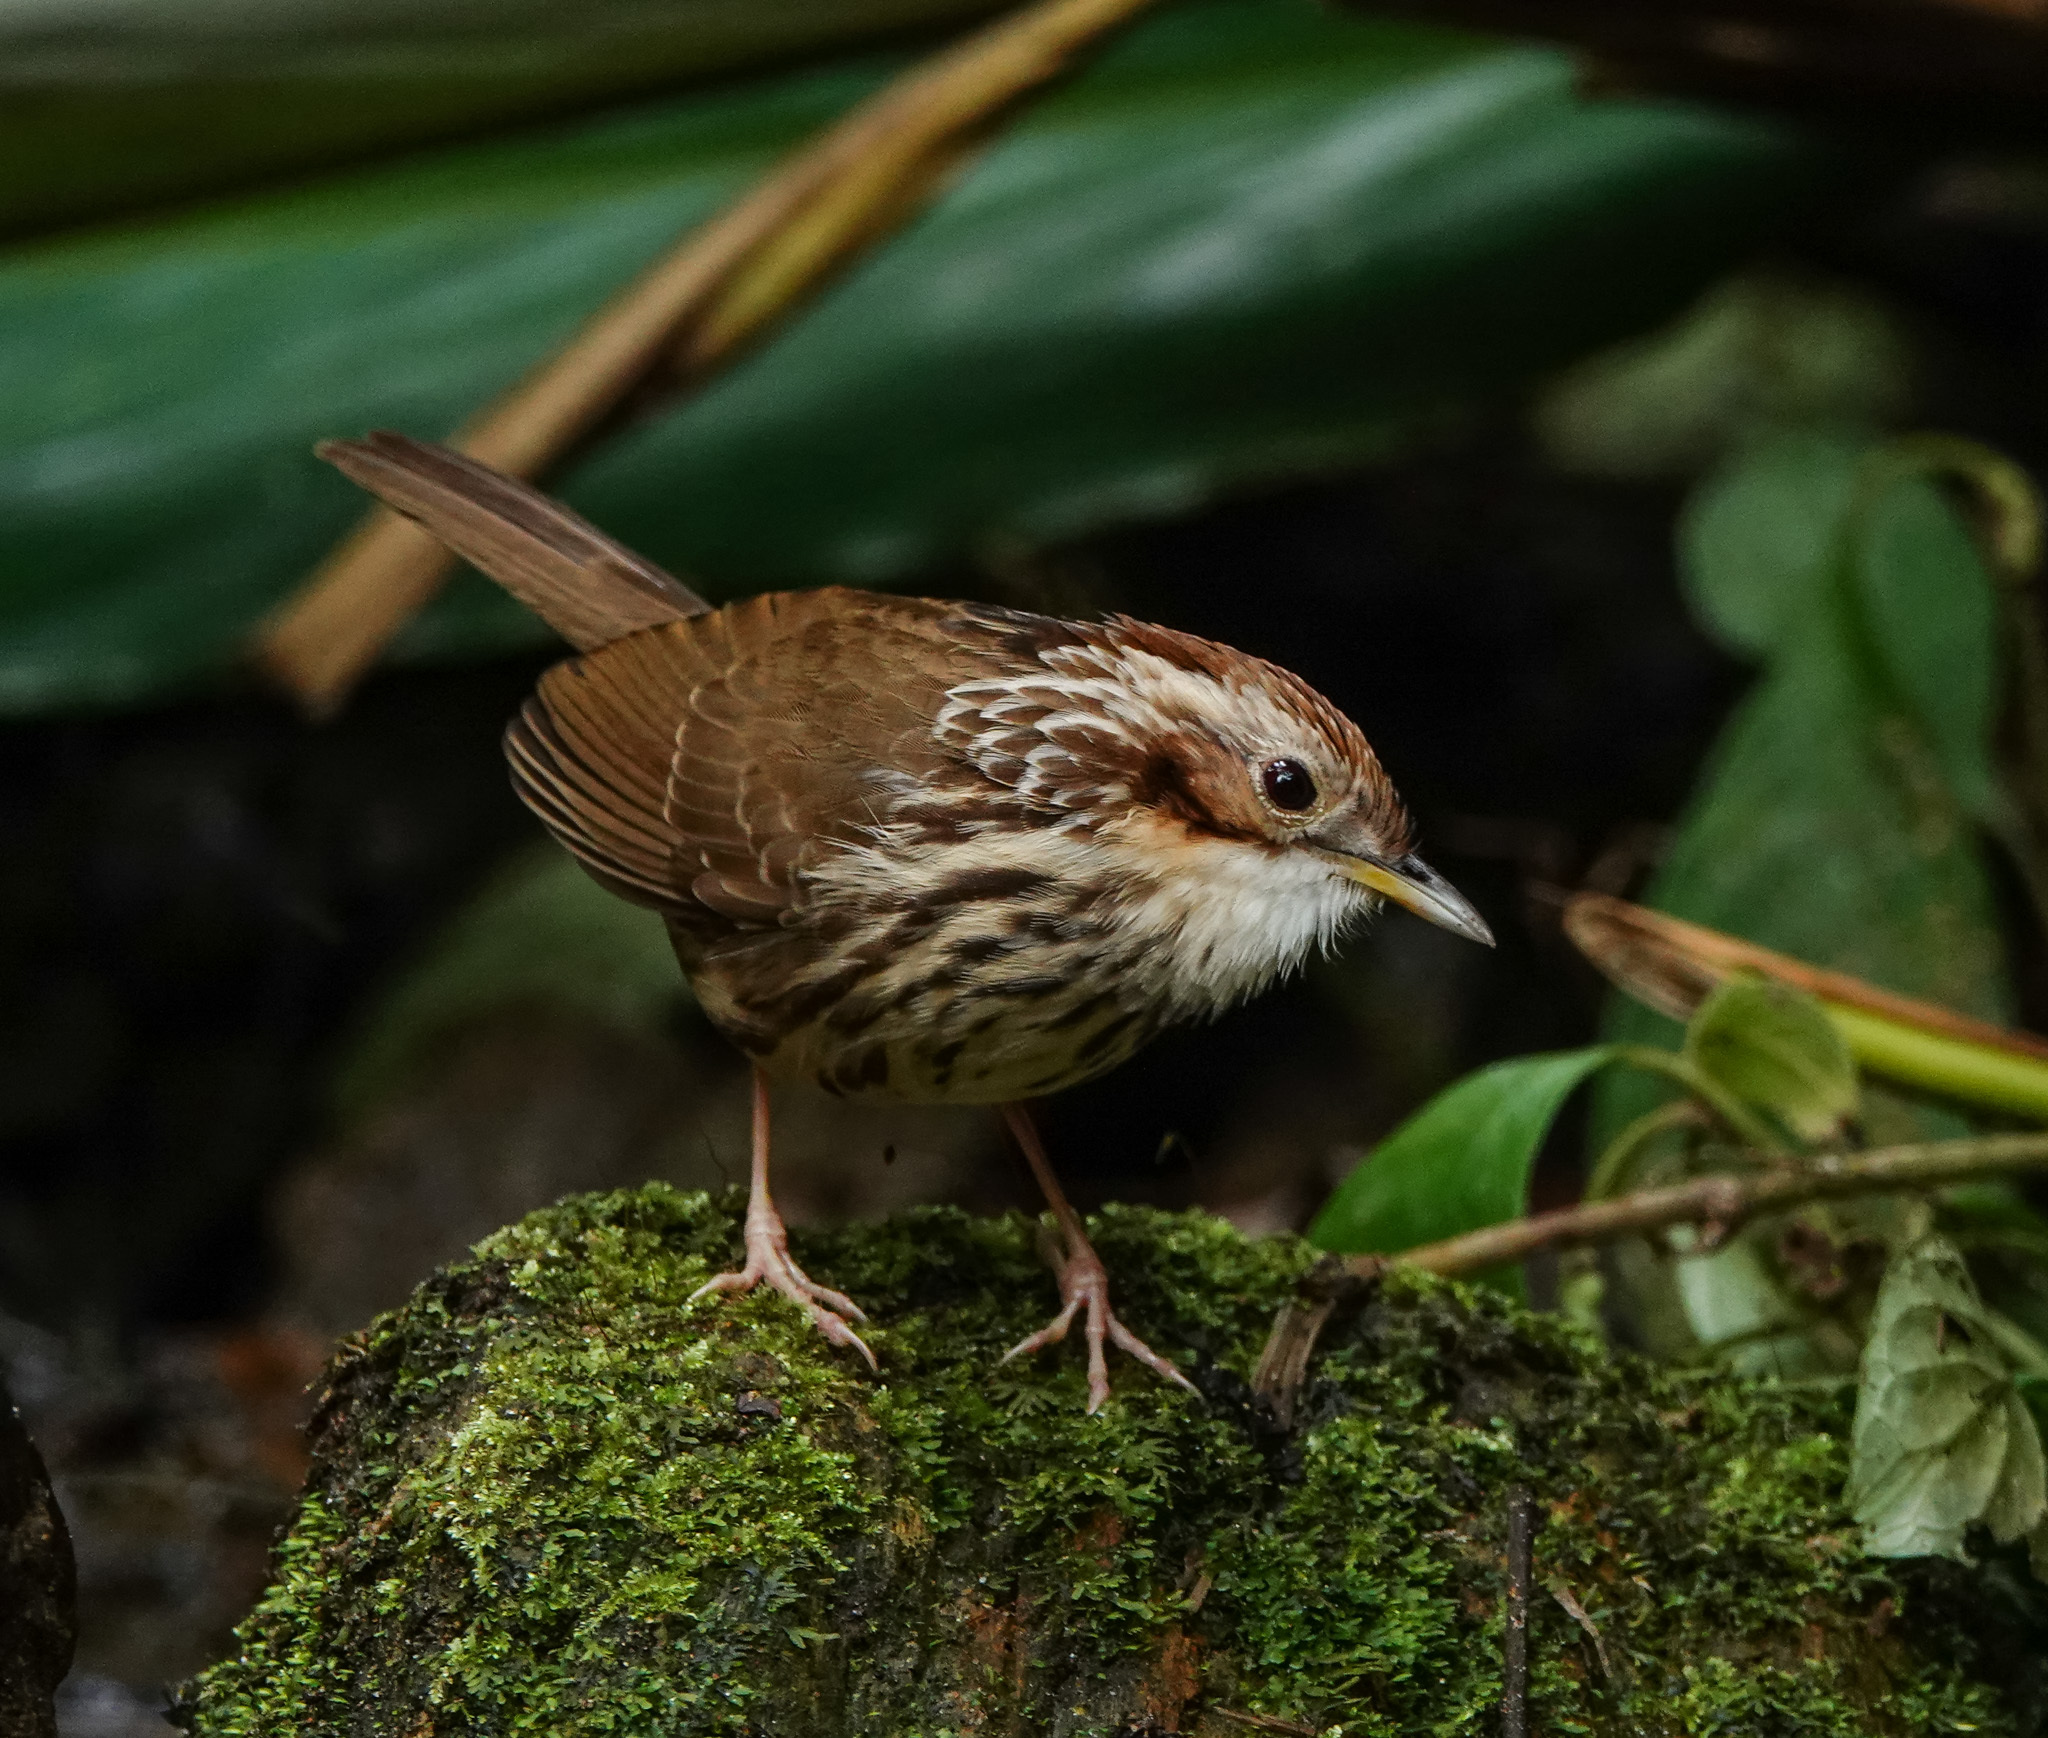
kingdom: Animalia
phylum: Chordata
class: Aves
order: Passeriformes
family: Pellorneidae
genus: Pellorneum
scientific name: Pellorneum ruficeps
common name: Puff-throated babbler
